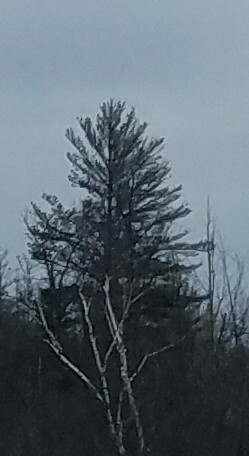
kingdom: Plantae
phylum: Tracheophyta
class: Pinopsida
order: Pinales
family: Pinaceae
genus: Pinus
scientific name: Pinus strobus
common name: Weymouth pine
